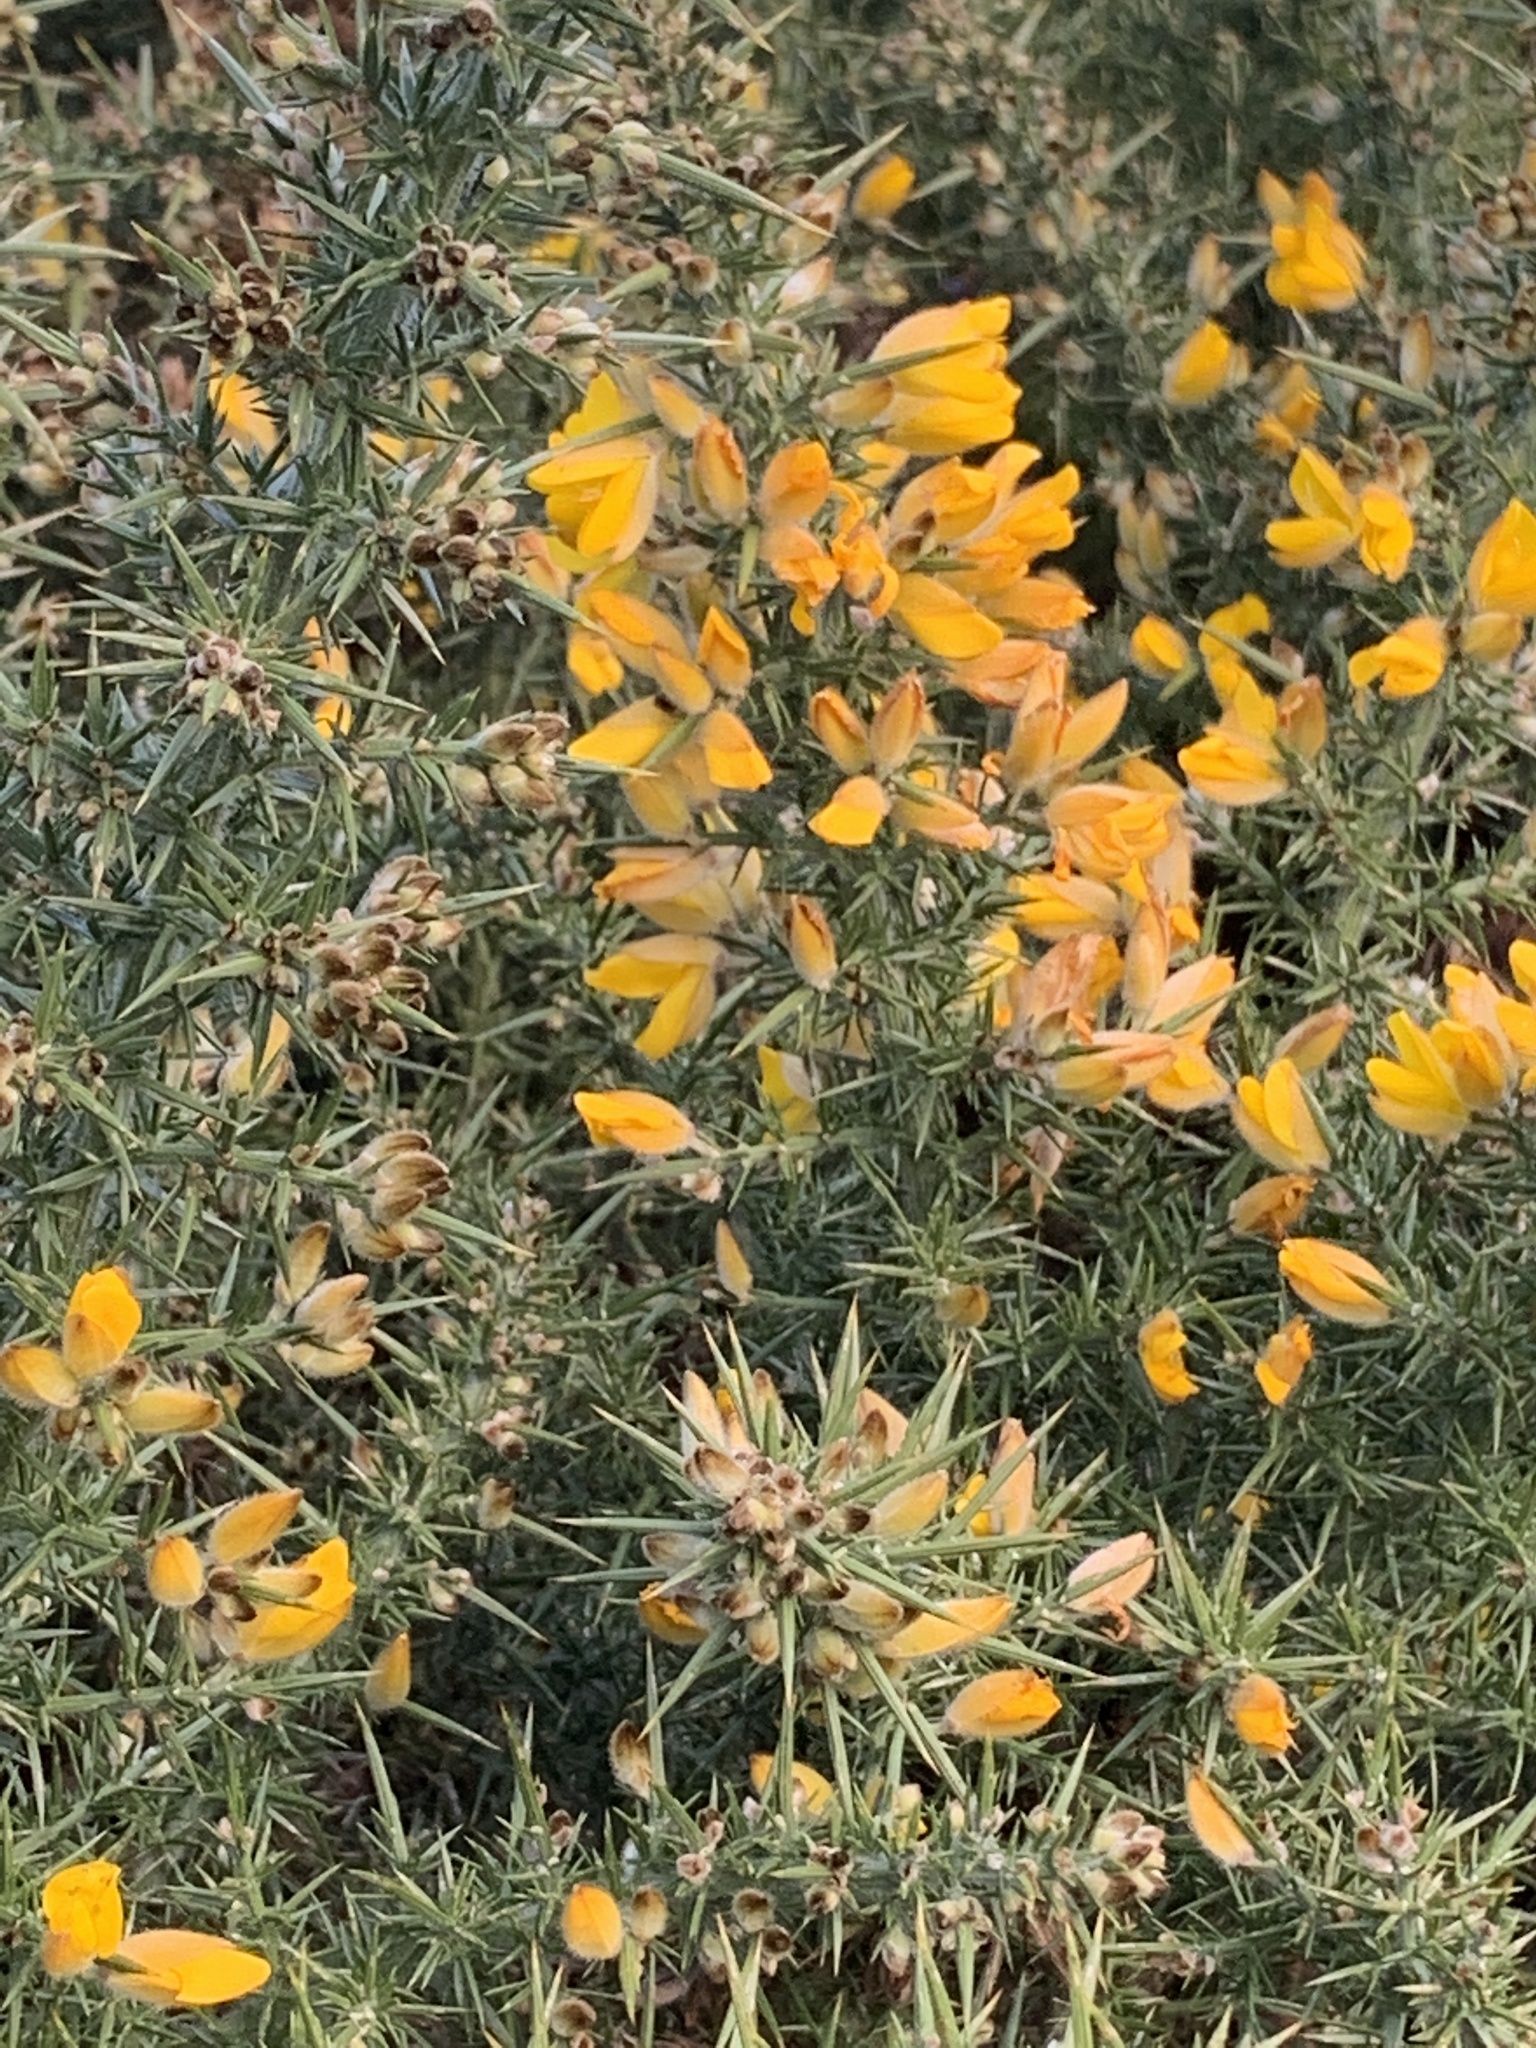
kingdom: Plantae
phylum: Tracheophyta
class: Magnoliopsida
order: Fabales
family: Fabaceae
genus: Ulex
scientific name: Ulex europaeus
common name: Common gorse
